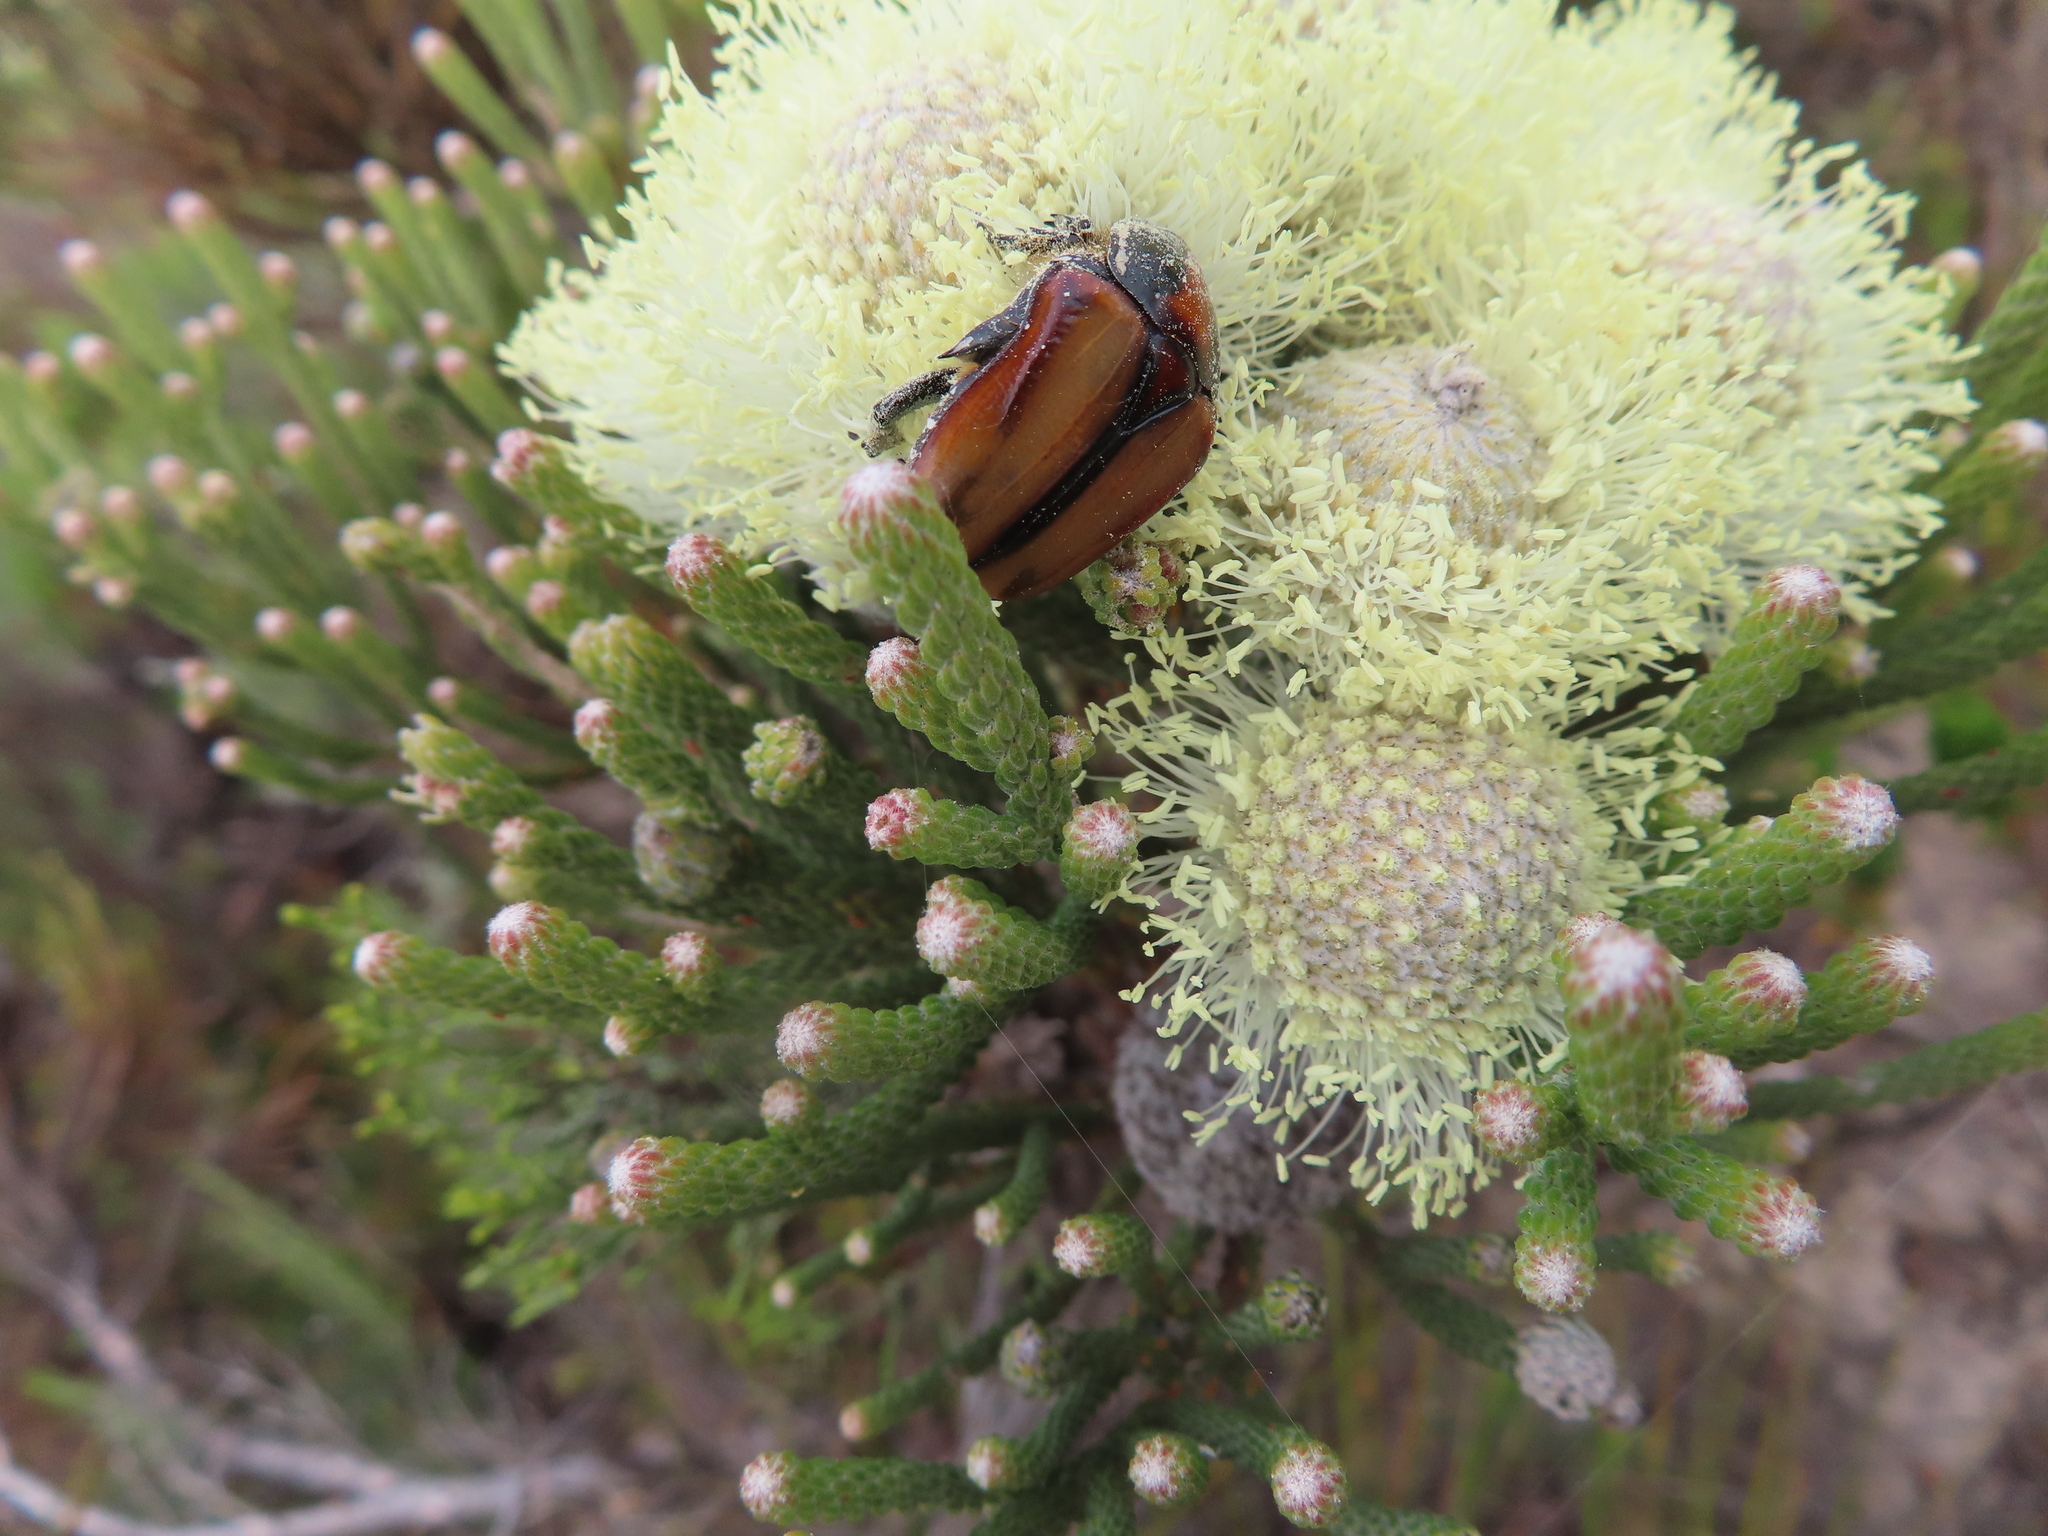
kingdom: Animalia
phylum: Arthropoda
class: Insecta
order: Coleoptera
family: Scarabaeidae
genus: Trichostetha
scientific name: Trichostetha signata
